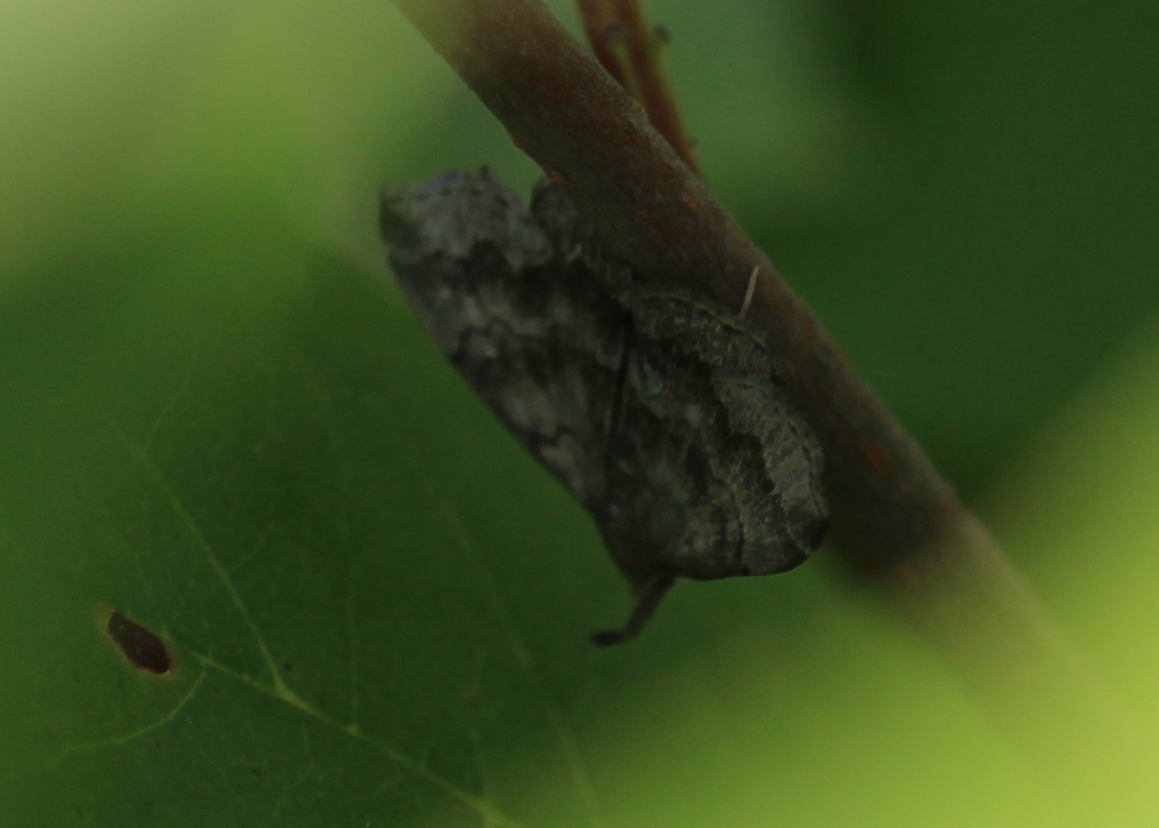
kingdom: Animalia
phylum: Arthropoda
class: Insecta
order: Lepidoptera
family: Erebidae
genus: Phalaenostola
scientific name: Phalaenostola larentioides
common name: Black-banded owlet
